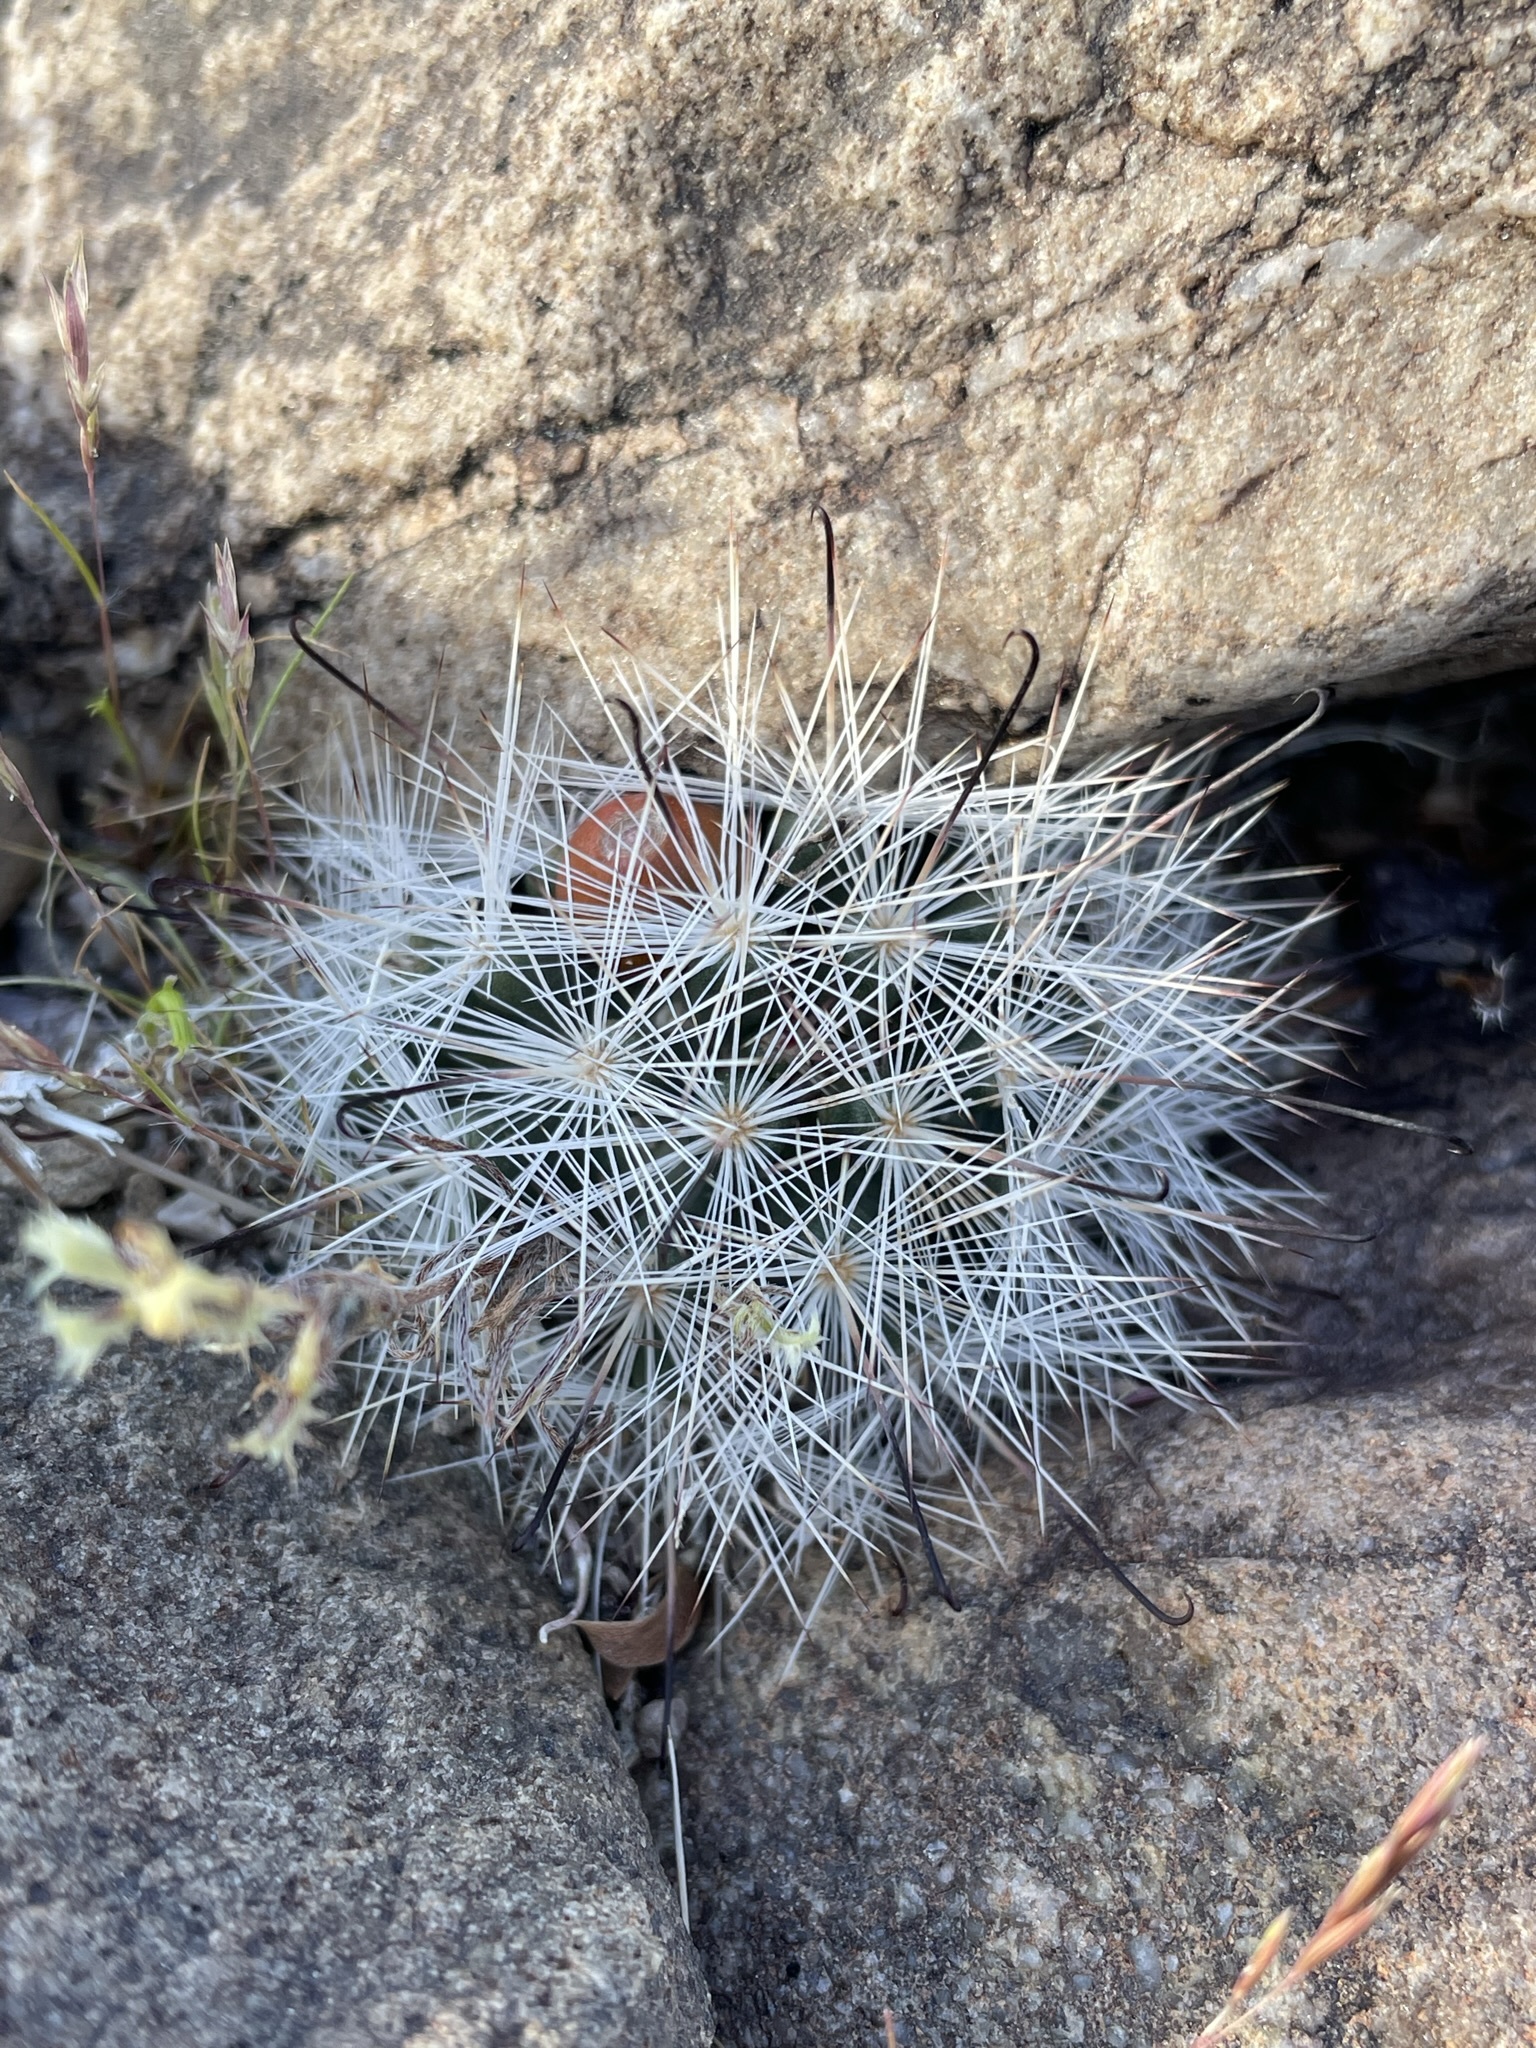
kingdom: Plantae
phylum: Tracheophyta
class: Magnoliopsida
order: Caryophyllales
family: Cactaceae
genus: Cochemiea
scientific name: Cochemiea tetrancistra
